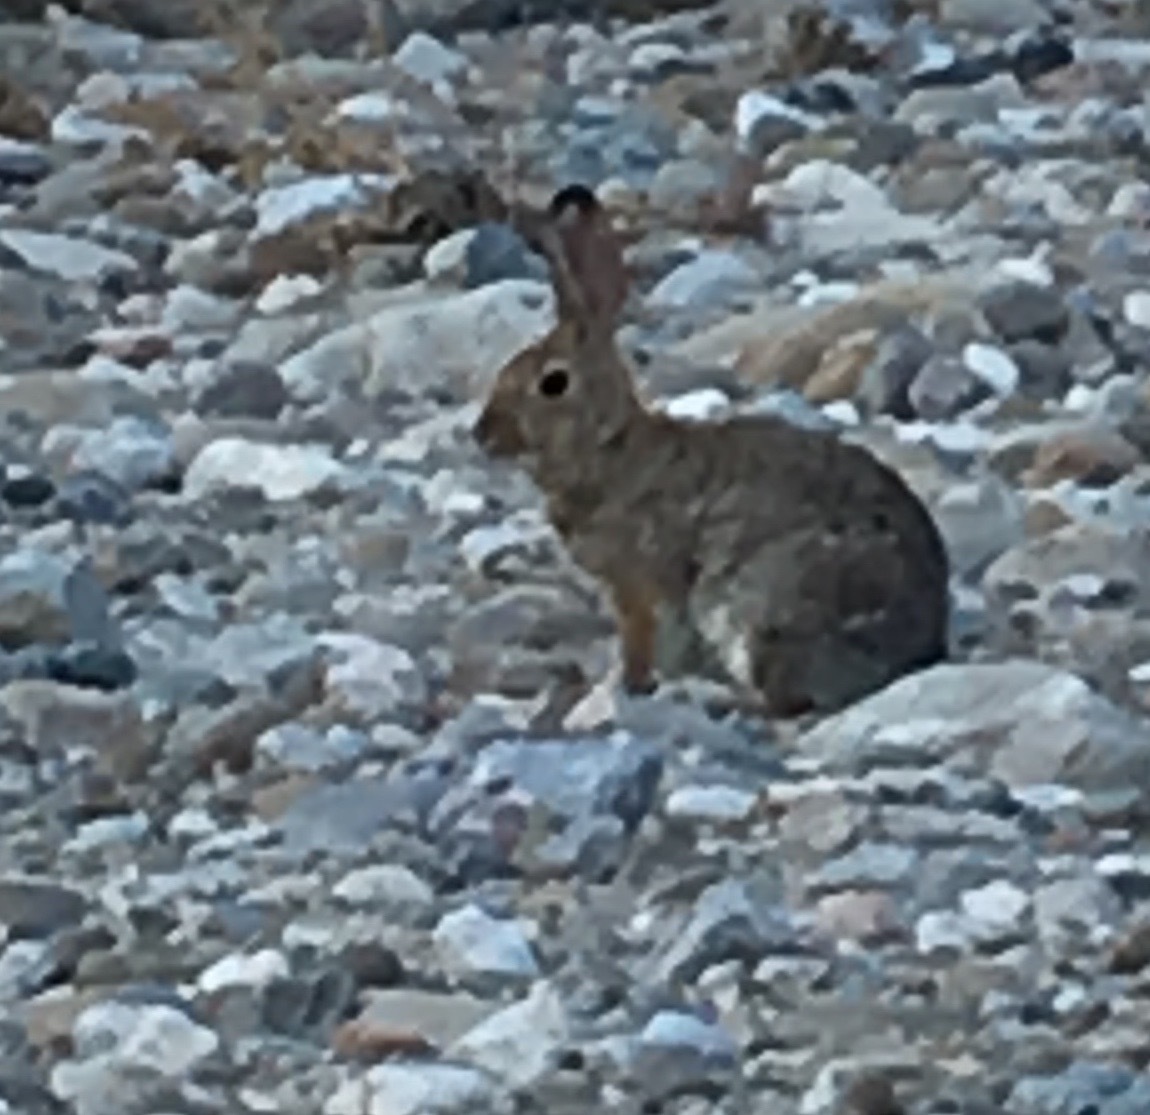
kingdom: Animalia
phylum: Chordata
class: Mammalia
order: Lagomorpha
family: Leporidae
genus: Sylvilagus
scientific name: Sylvilagus audubonii
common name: Desert cottontail
